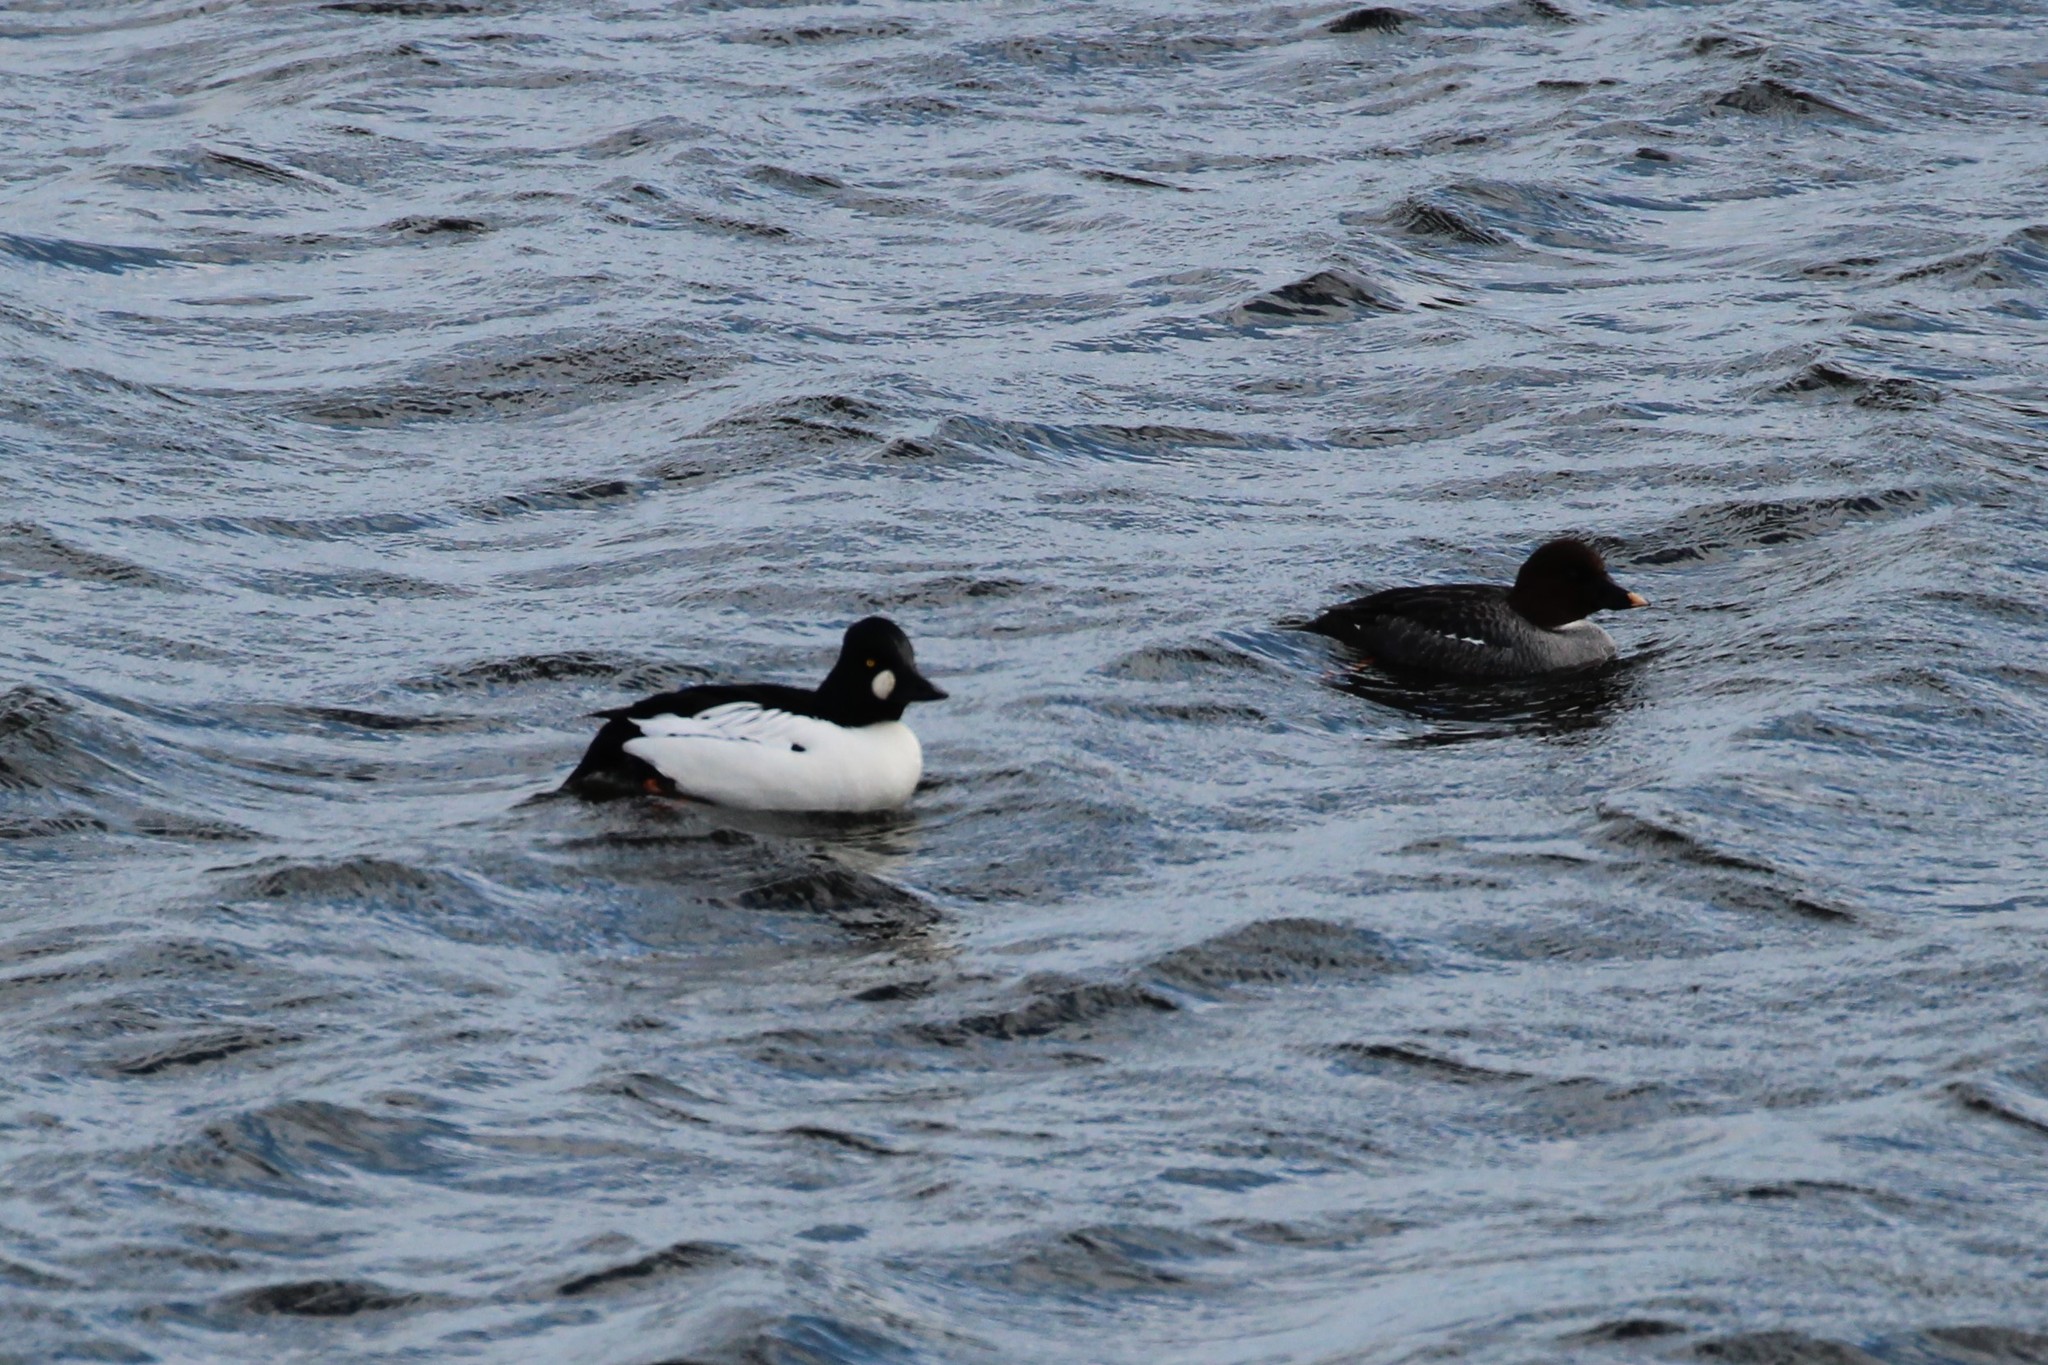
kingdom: Animalia
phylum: Chordata
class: Aves
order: Anseriformes
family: Anatidae
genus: Bucephala
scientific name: Bucephala clangula
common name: Common goldeneye
